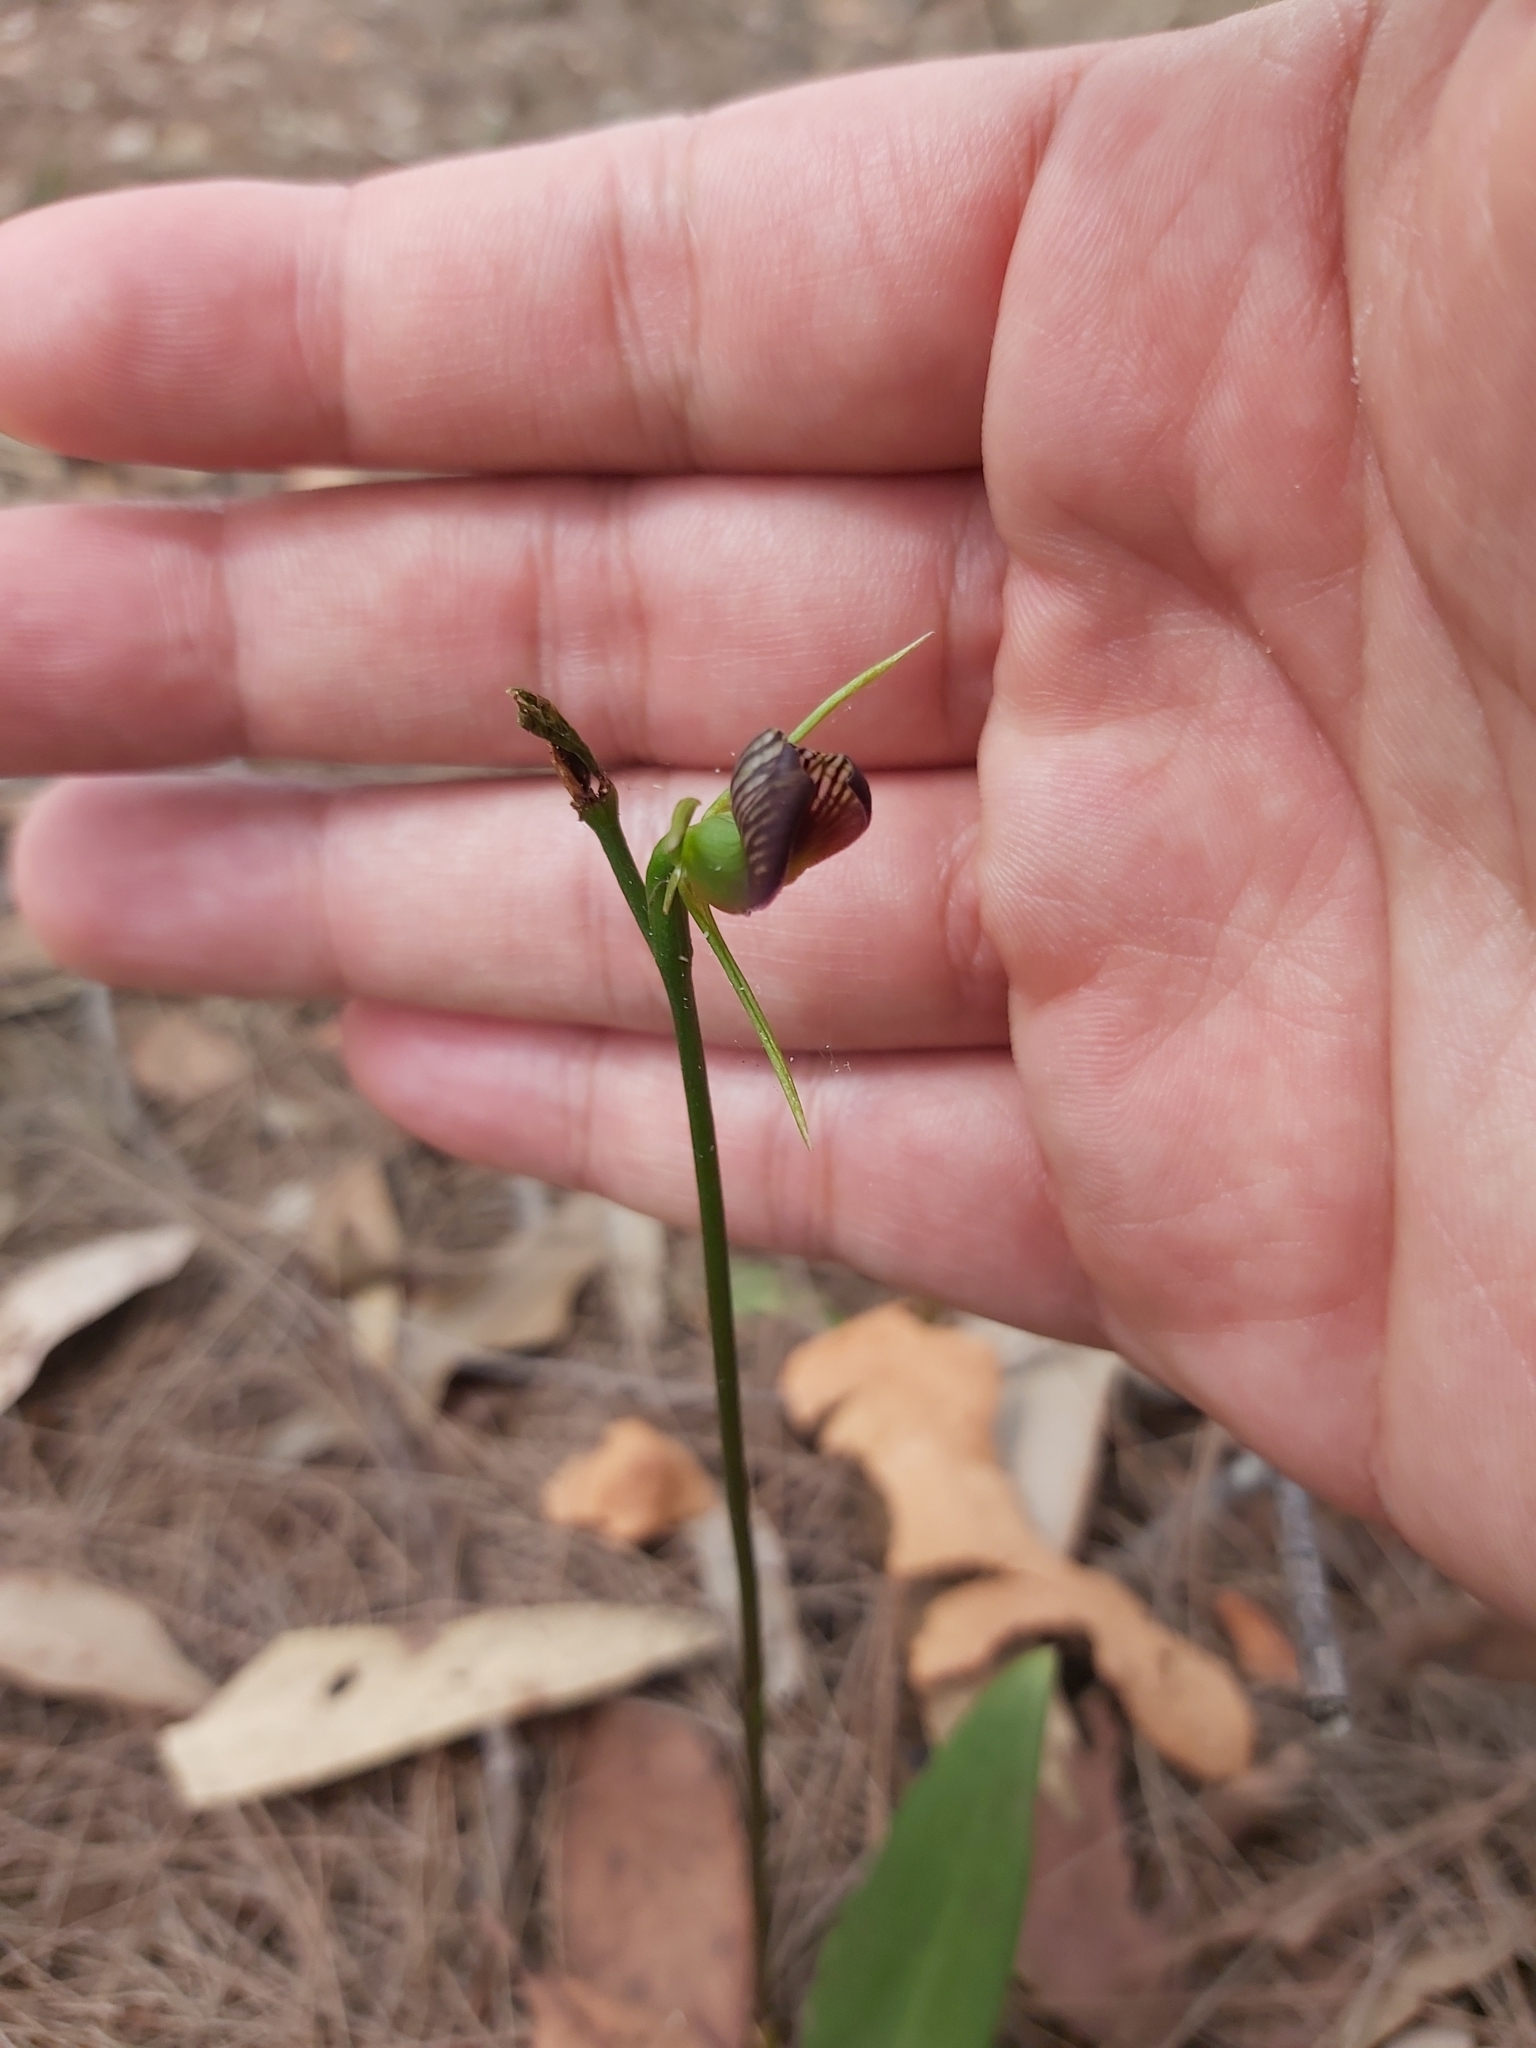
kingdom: Plantae
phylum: Tracheophyta
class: Liliopsida
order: Asparagales
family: Orchidaceae
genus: Cryptostylis
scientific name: Cryptostylis erecta
